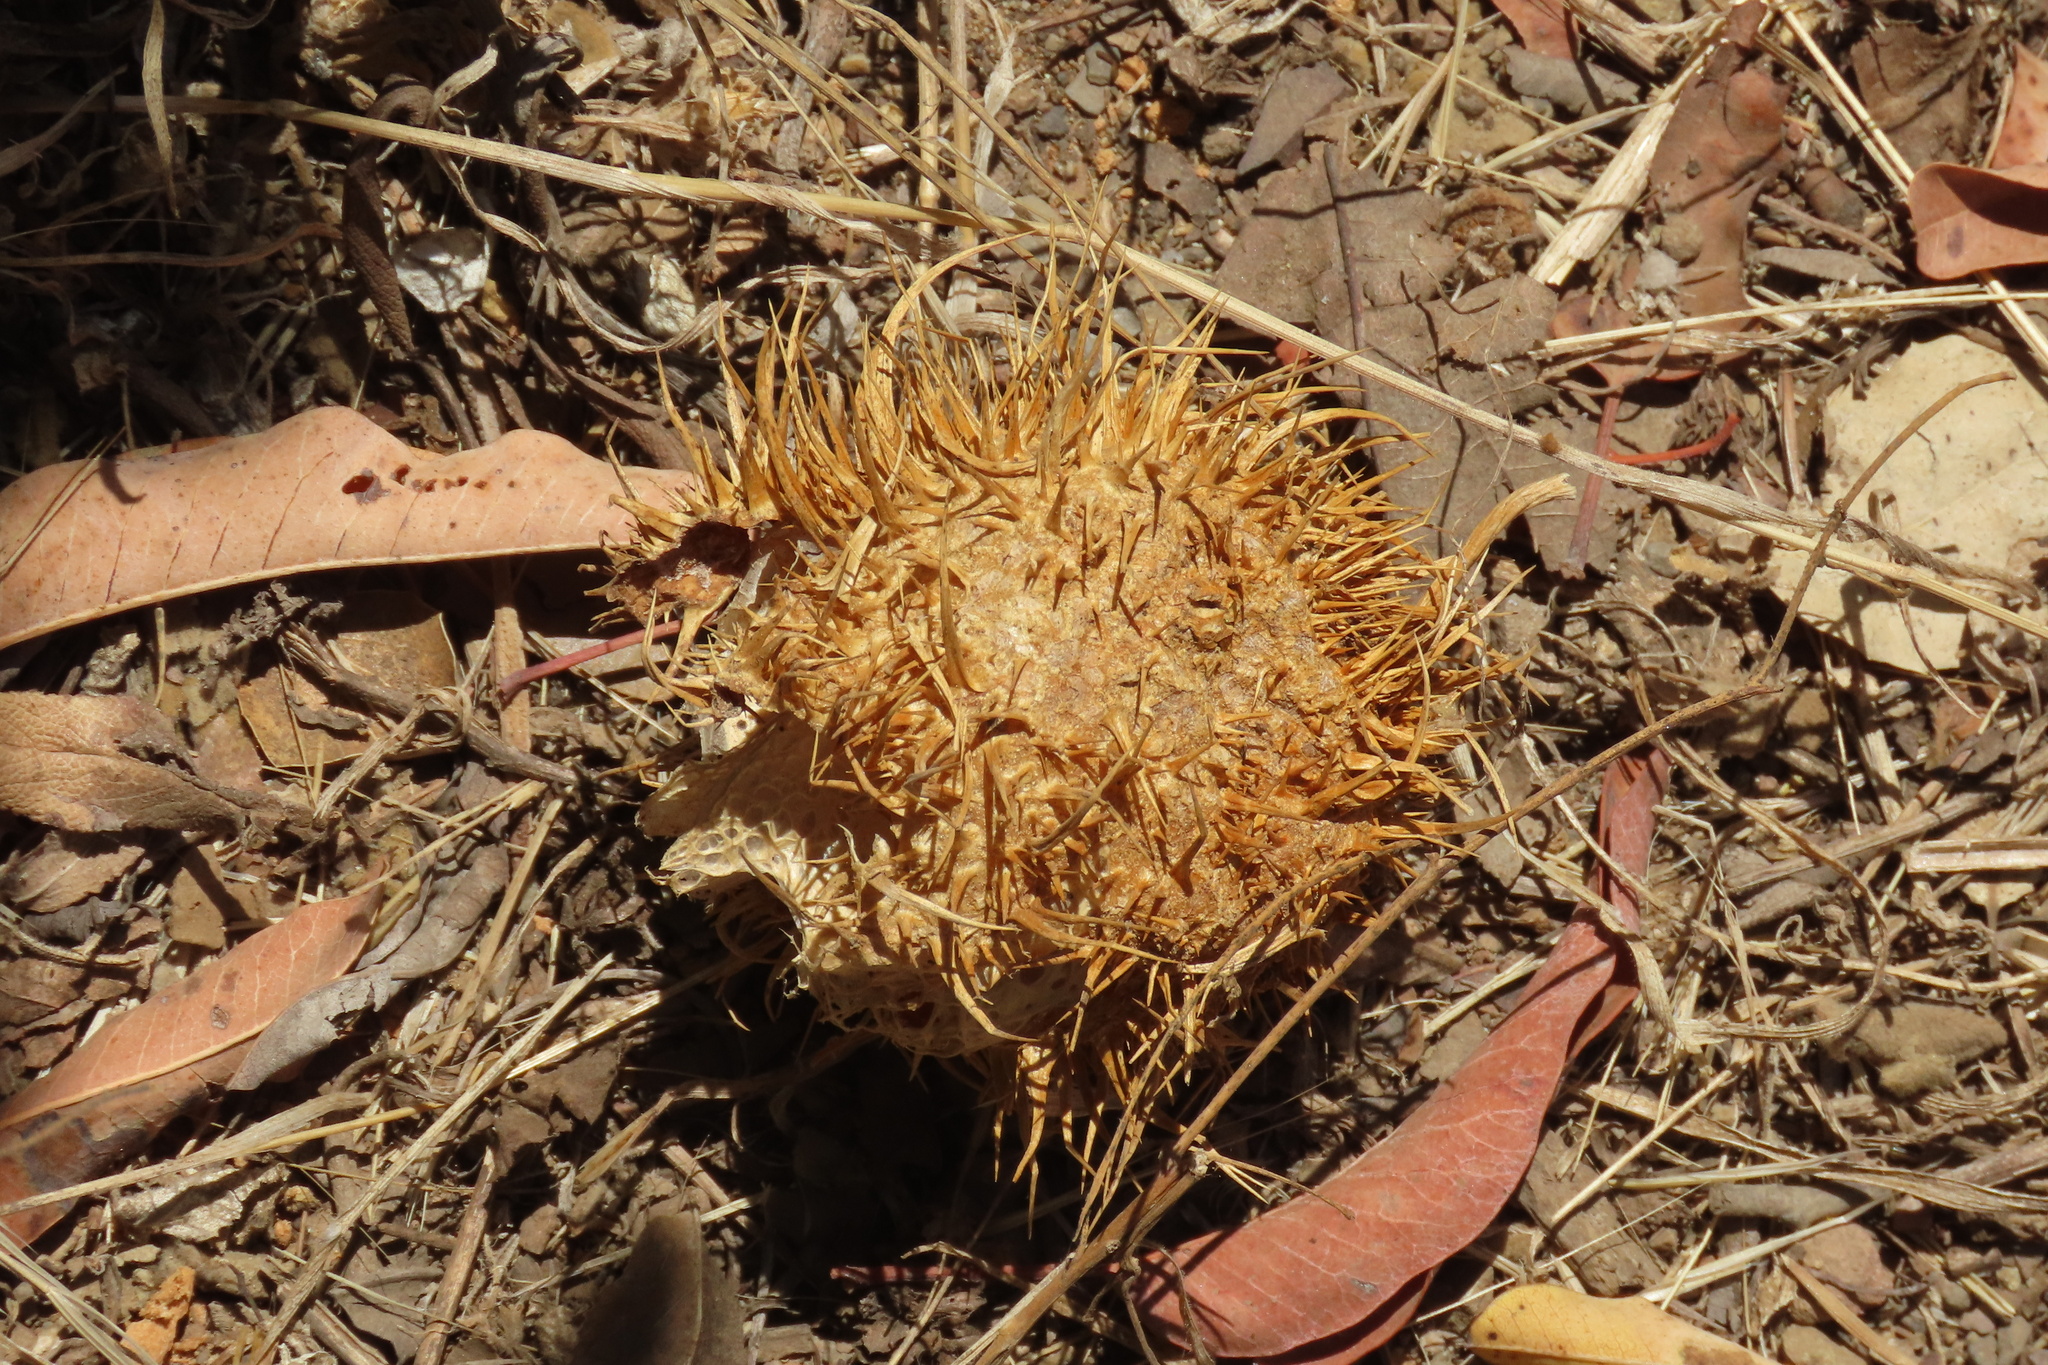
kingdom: Plantae
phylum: Tracheophyta
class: Magnoliopsida
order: Cucurbitales
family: Cucurbitaceae
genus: Marah
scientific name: Marah macrocarpa
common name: Cucamonga manroot
